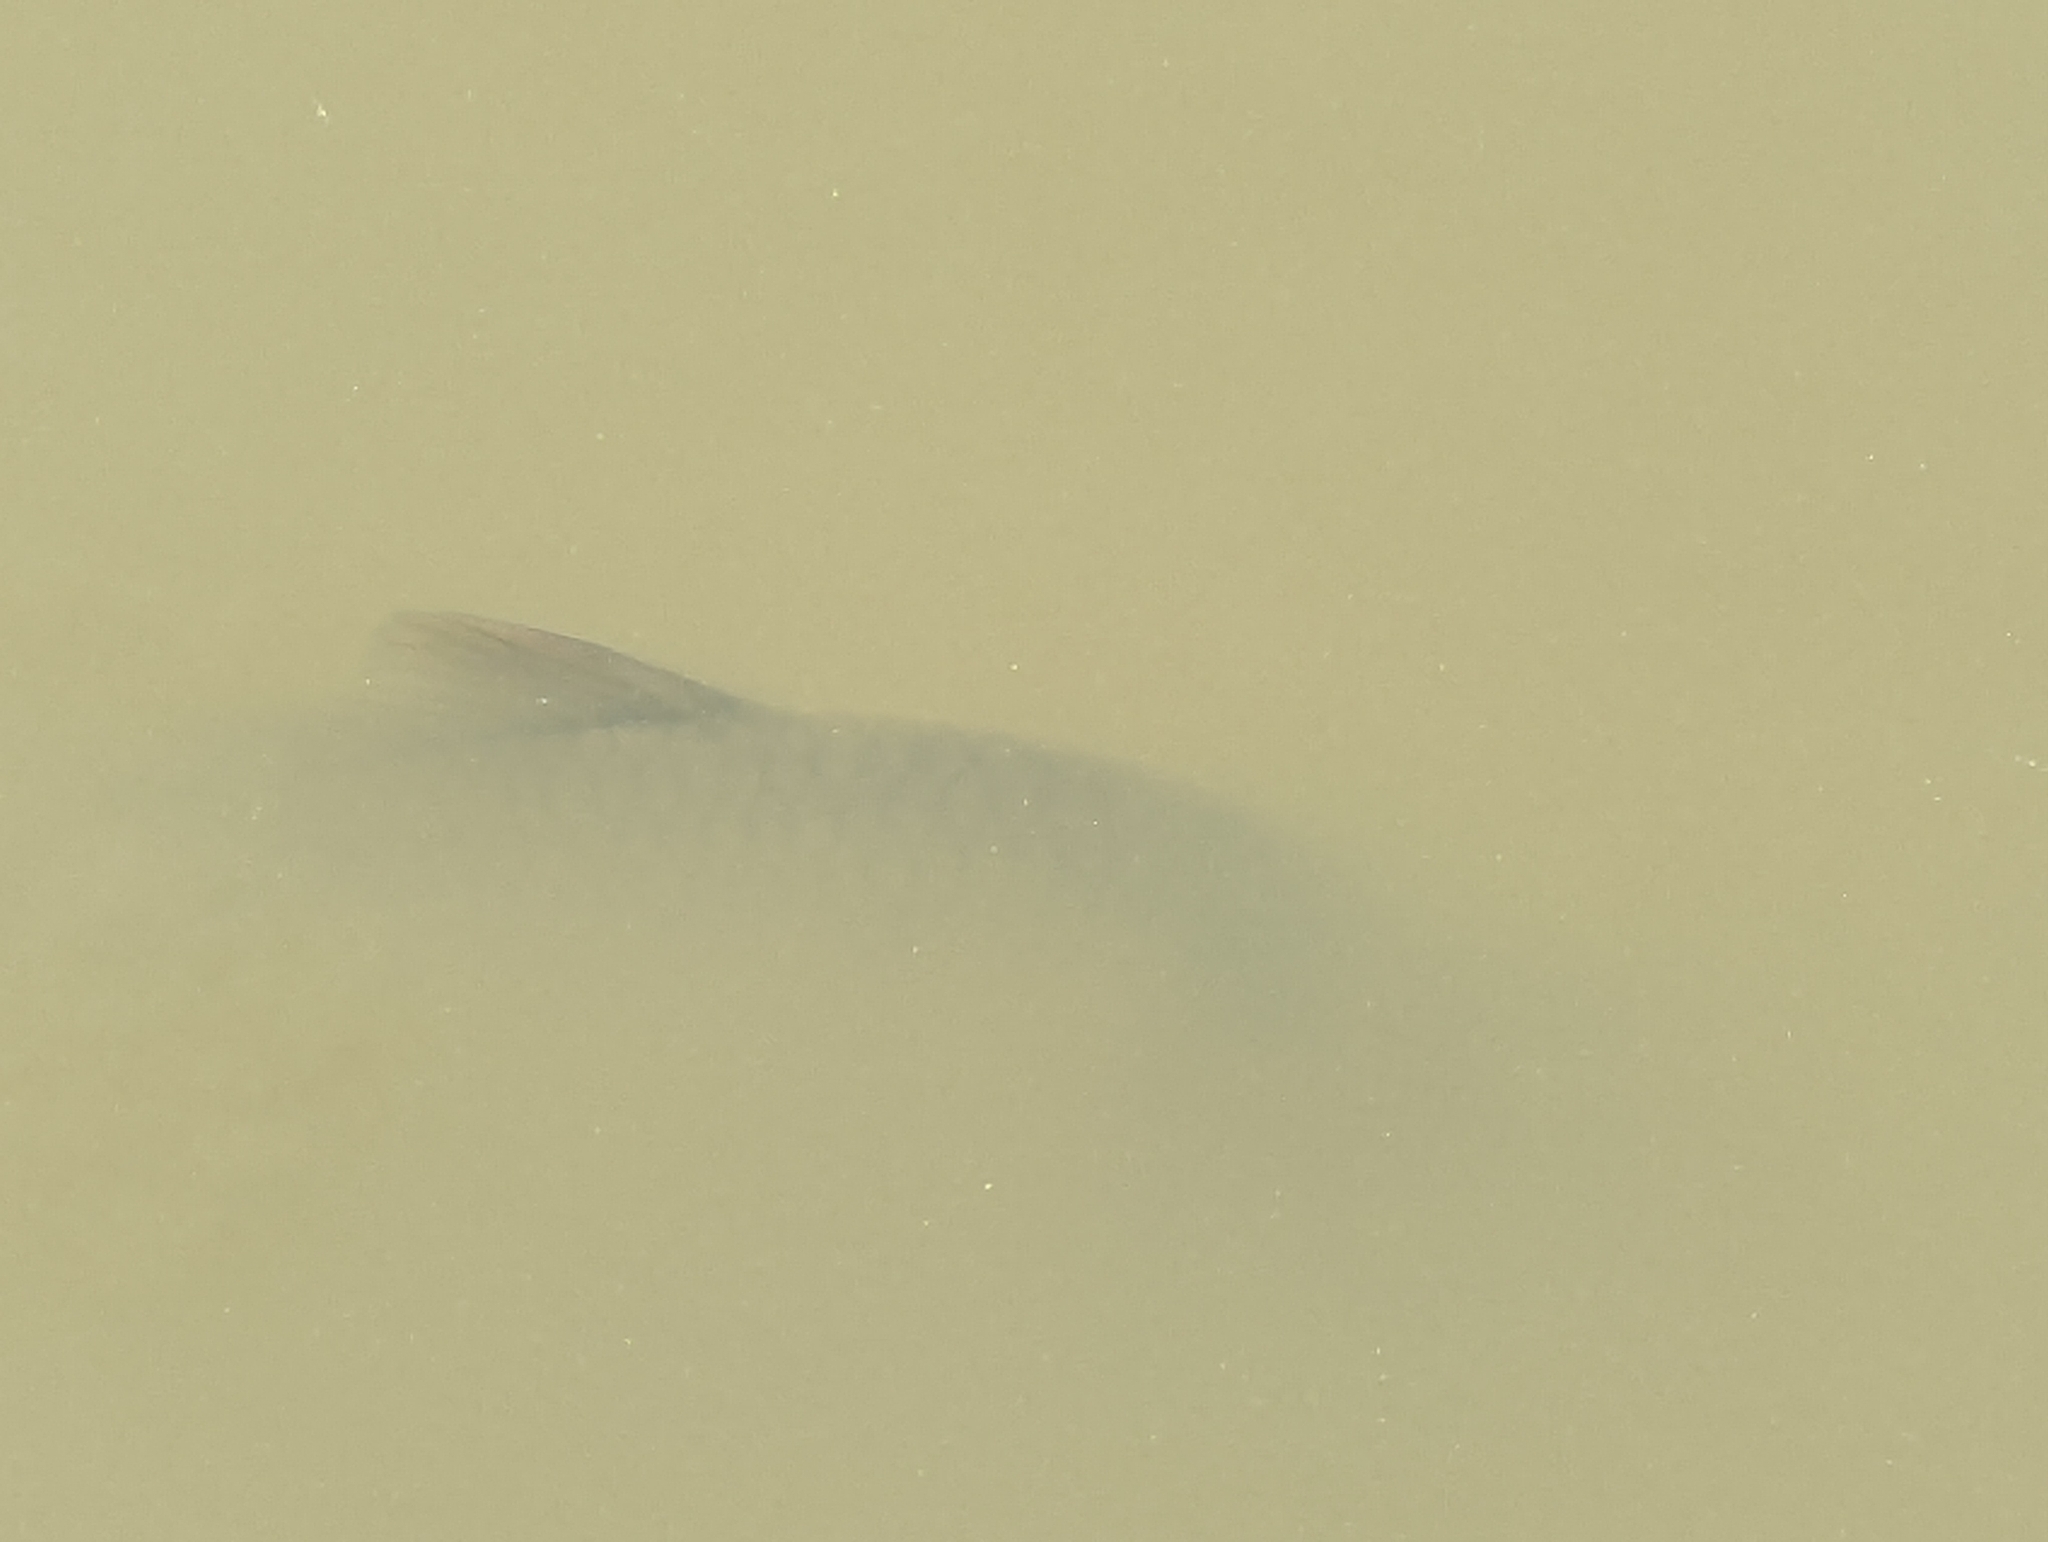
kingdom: Animalia
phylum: Chordata
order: Cypriniformes
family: Cyprinidae
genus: Cyprinus
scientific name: Cyprinus carpio
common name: Common carp
